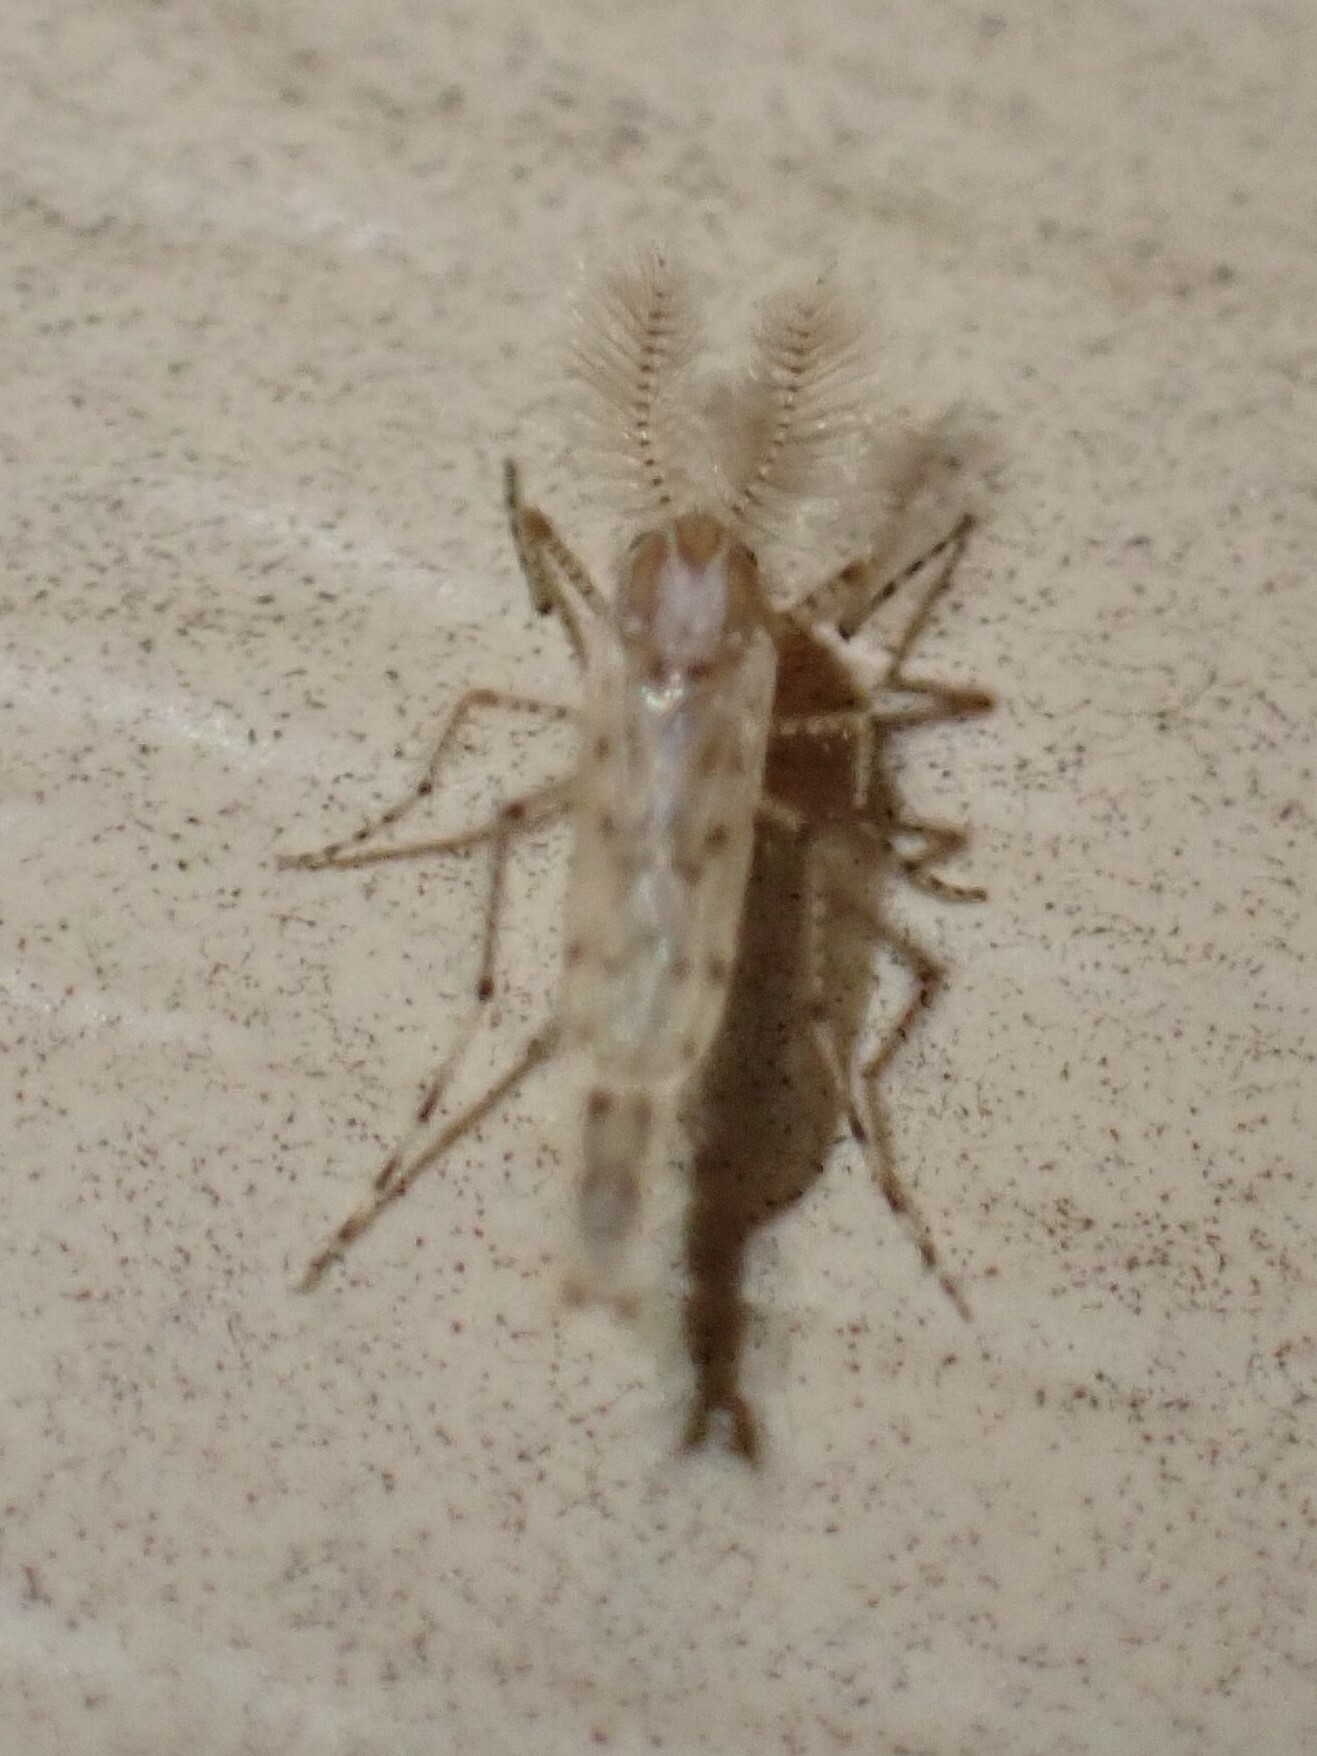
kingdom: Animalia
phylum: Arthropoda
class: Insecta
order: Diptera
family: Chaoboridae
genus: Chaoborus
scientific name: Chaoborus punctipennis
